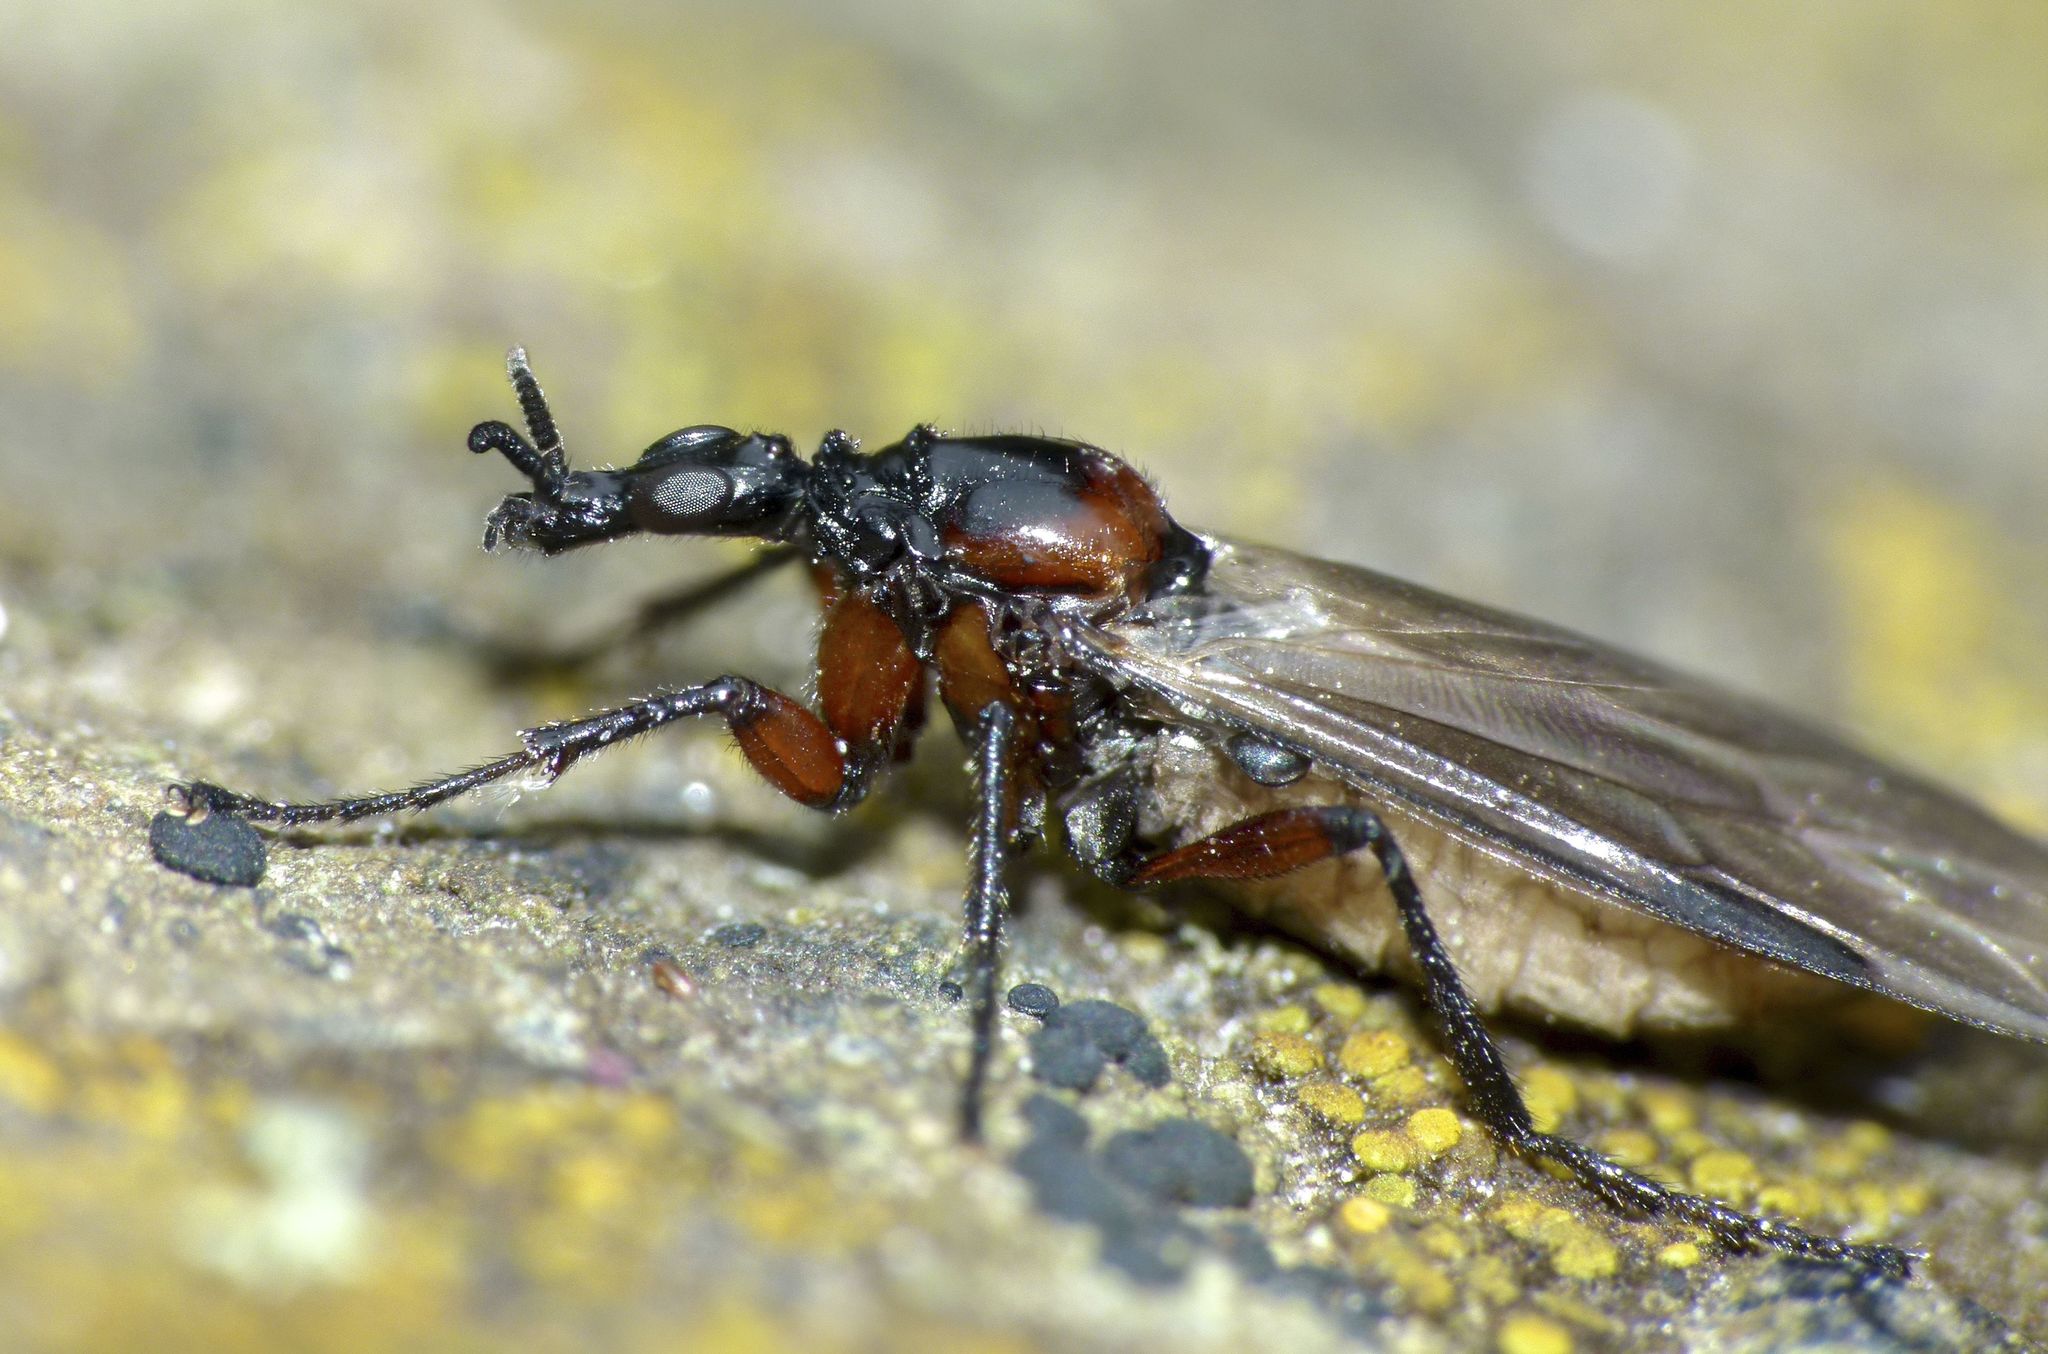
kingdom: Animalia
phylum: Arthropoda
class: Insecta
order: Diptera
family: Bibionidae
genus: Dilophus
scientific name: Dilophus nigrostigma
